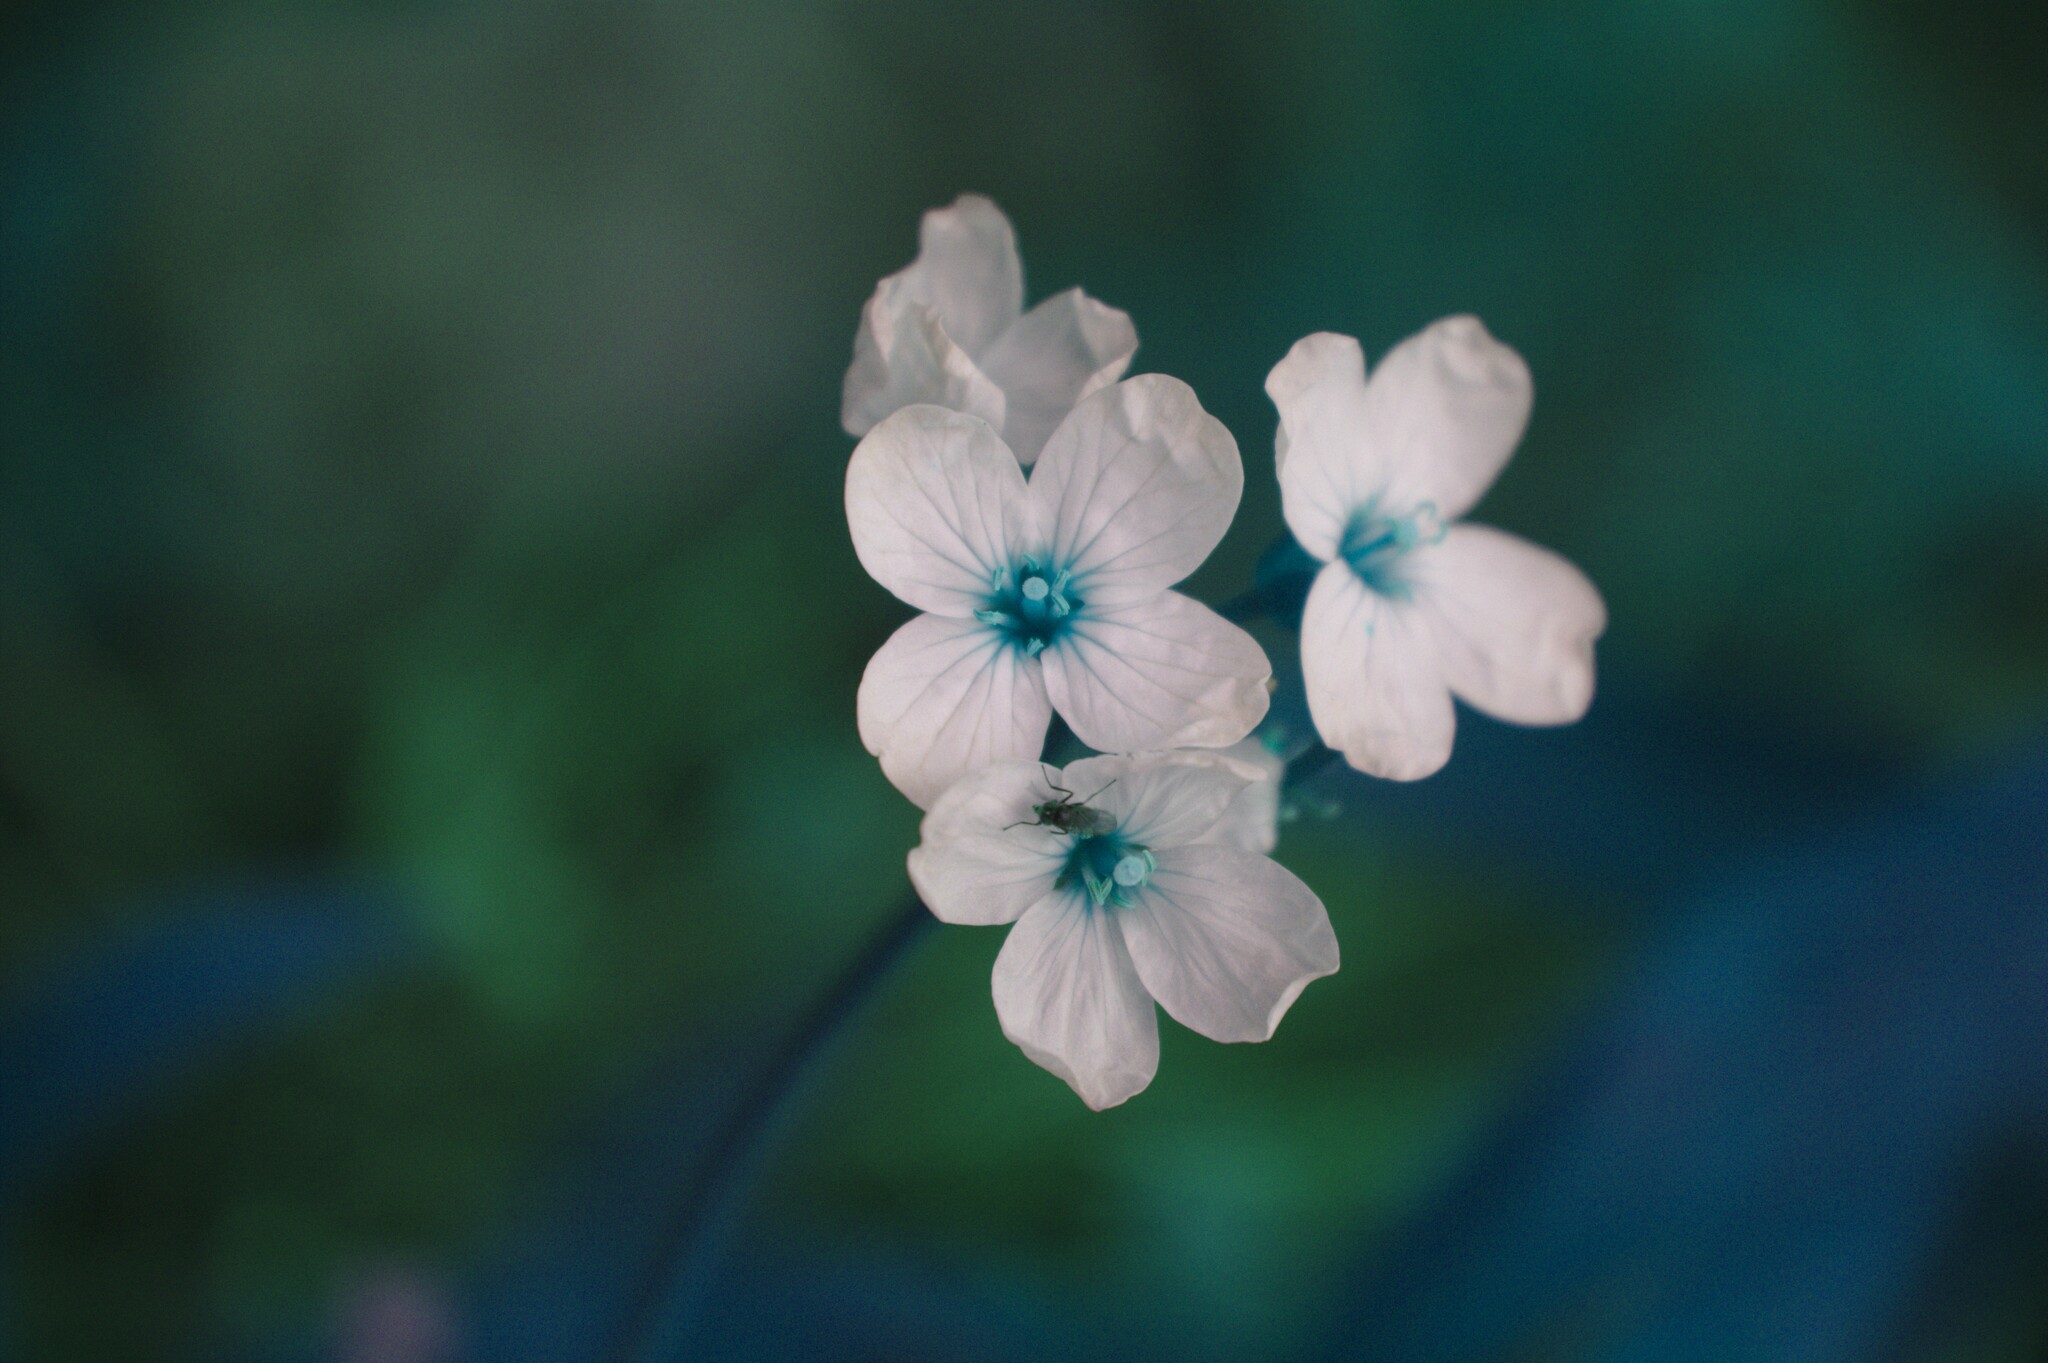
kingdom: Plantae
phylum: Tracheophyta
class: Magnoliopsida
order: Brassicales
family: Brassicaceae
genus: Cardamine
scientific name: Cardamine pratensis
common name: Cuckoo flower
